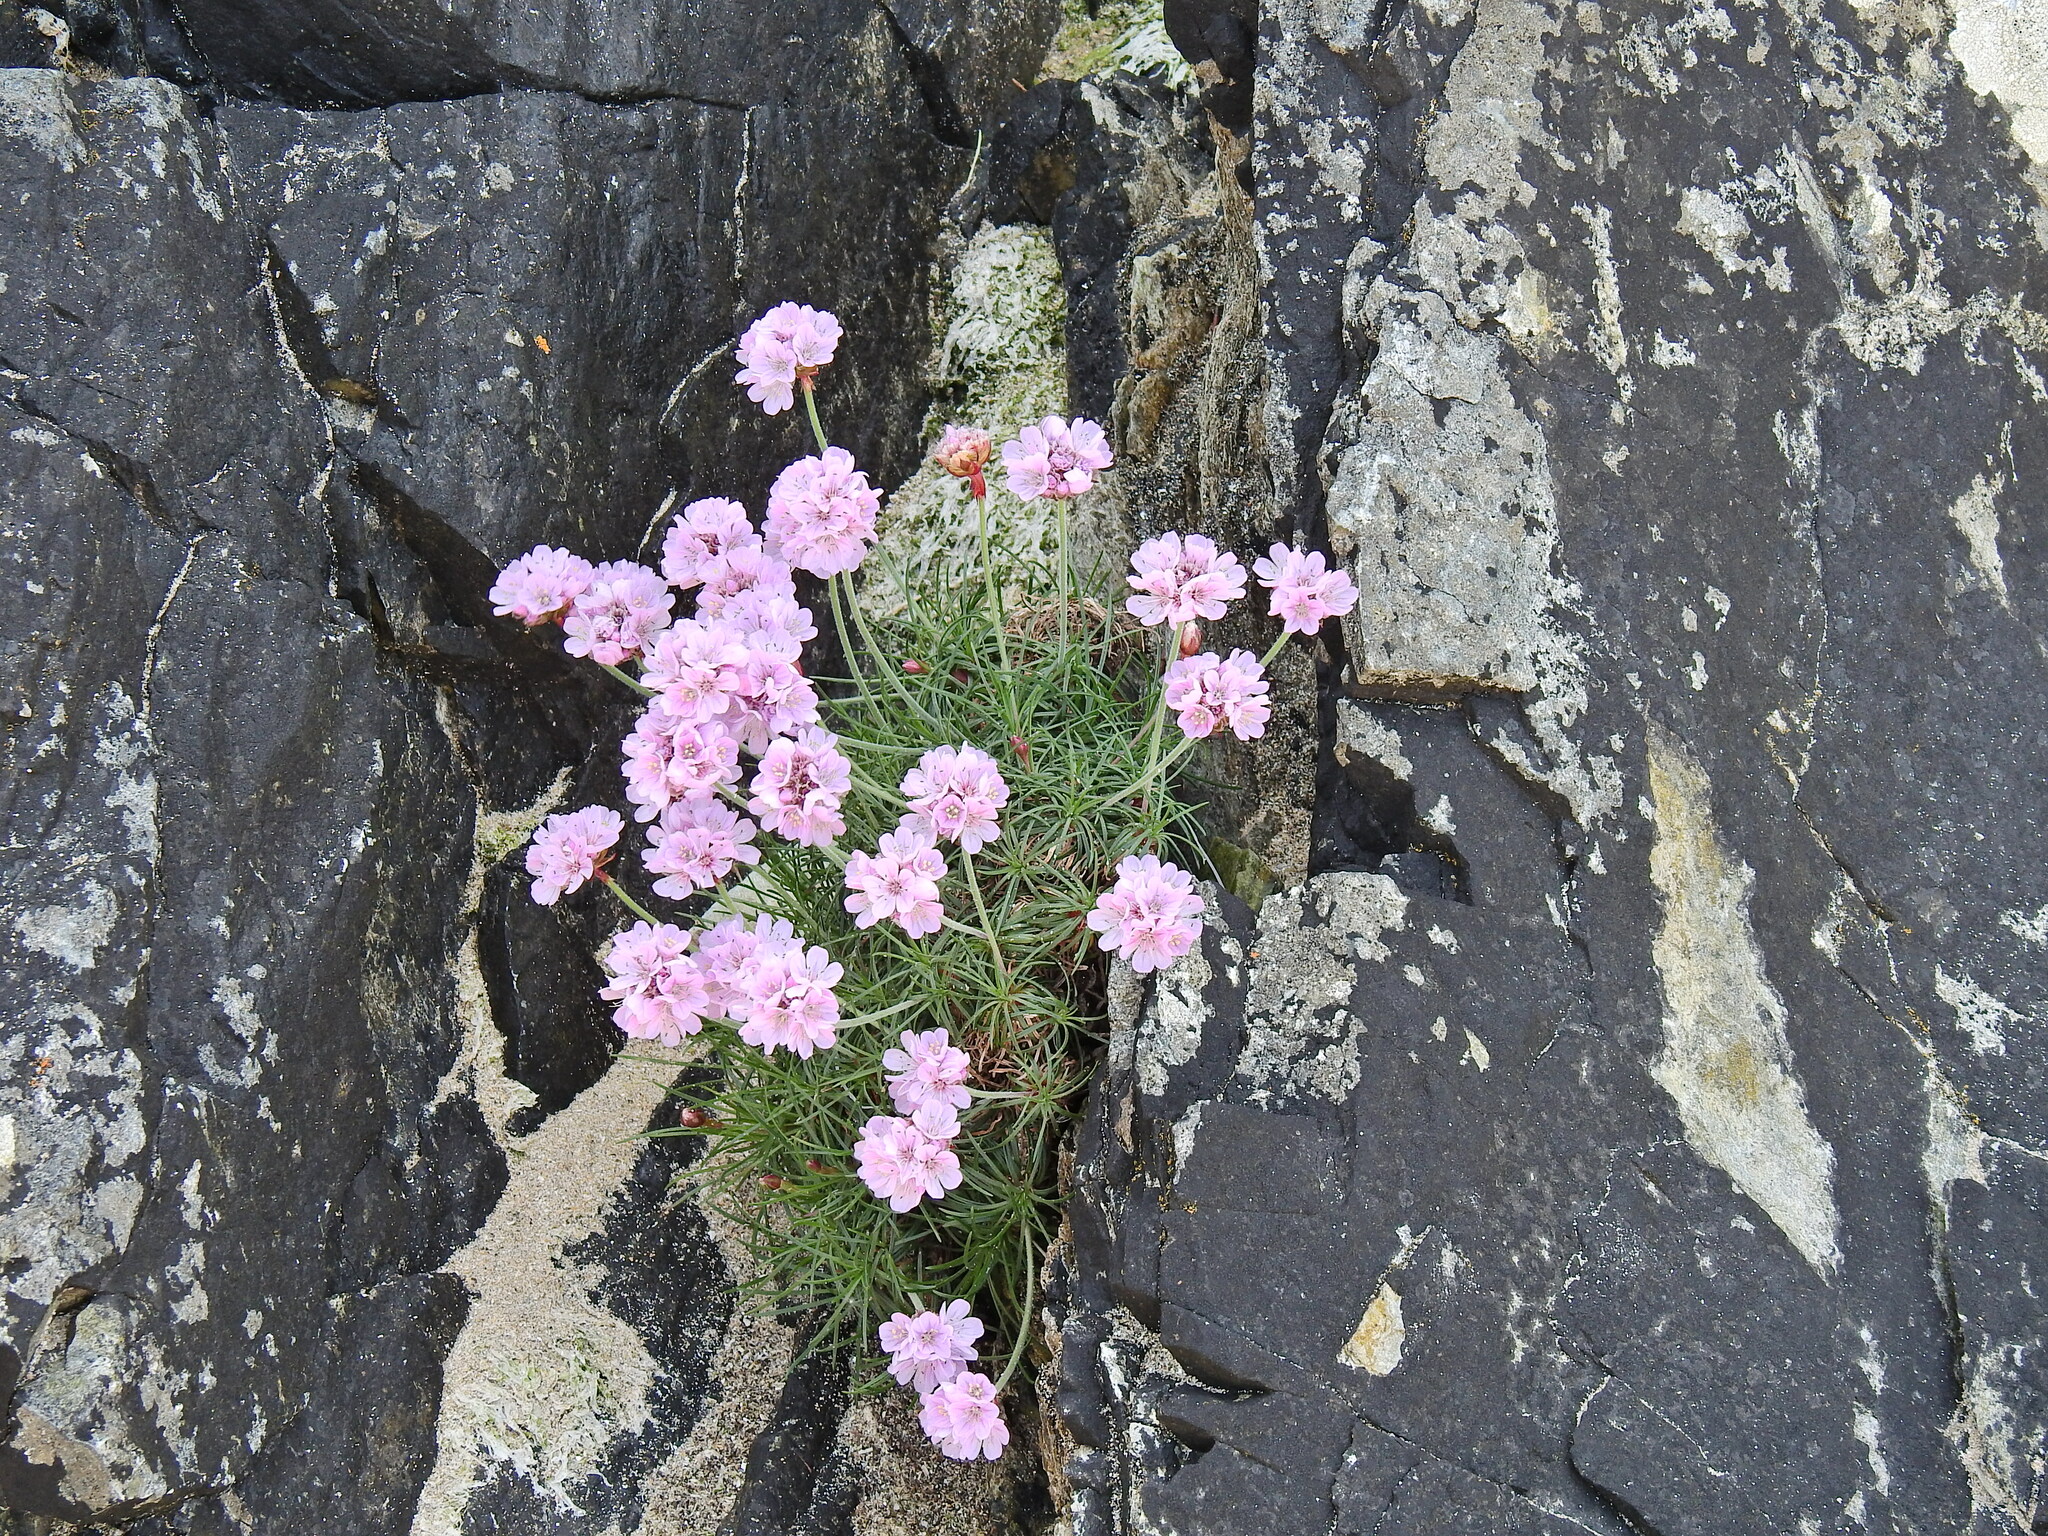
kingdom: Plantae
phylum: Tracheophyta
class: Magnoliopsida
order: Caryophyllales
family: Plumbaginaceae
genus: Armeria
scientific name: Armeria maritima
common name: Thrift
